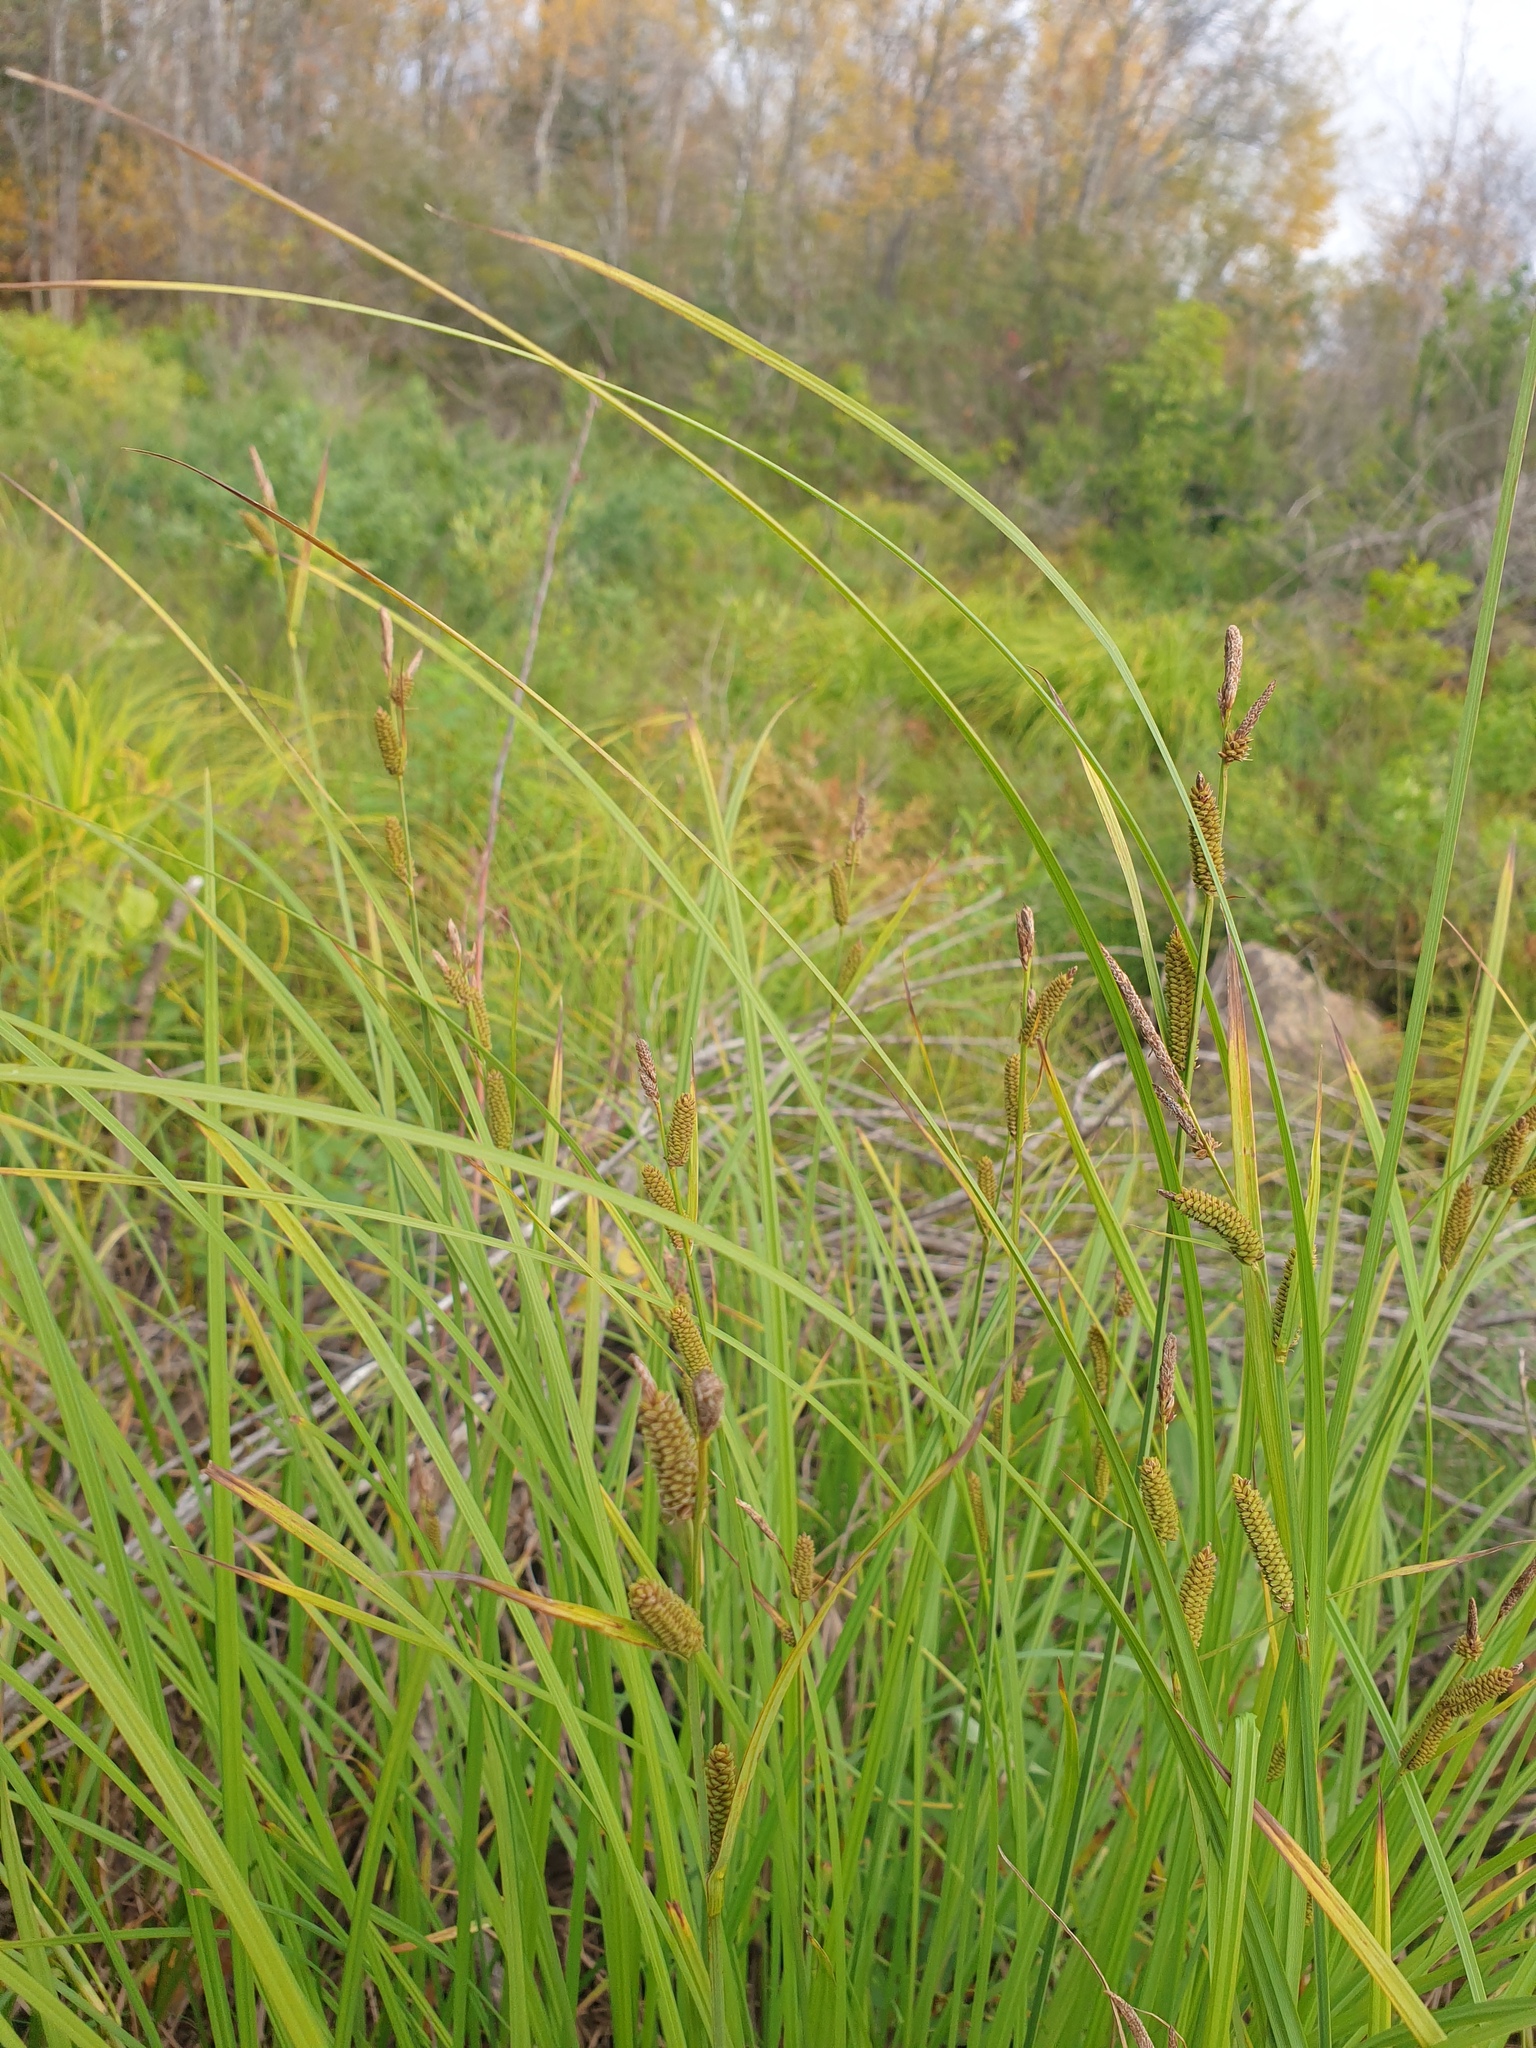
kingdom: Plantae
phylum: Tracheophyta
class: Liliopsida
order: Poales
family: Cyperaceae
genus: Carex
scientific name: Carex stricta
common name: Hummock sedge
